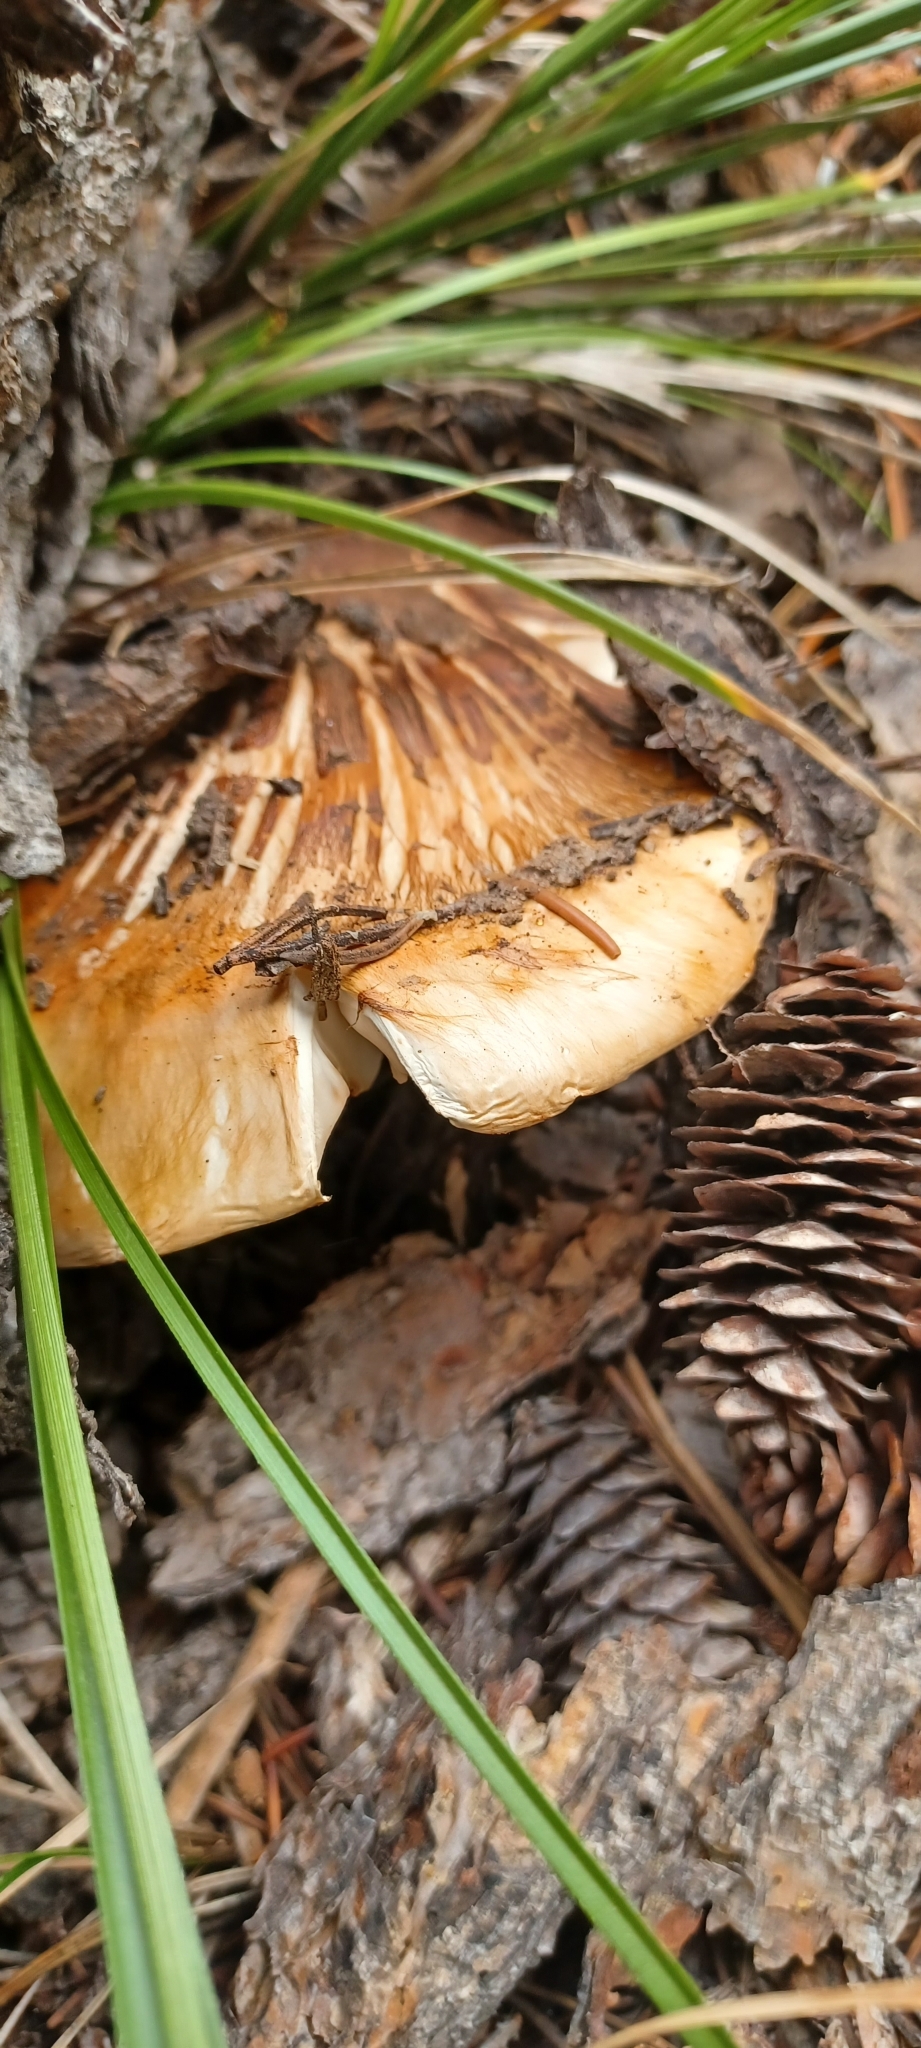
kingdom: Fungi
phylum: Basidiomycota
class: Agaricomycetes
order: Agaricales
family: Tricholomataceae
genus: Tricholoma
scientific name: Tricholoma zelleri
